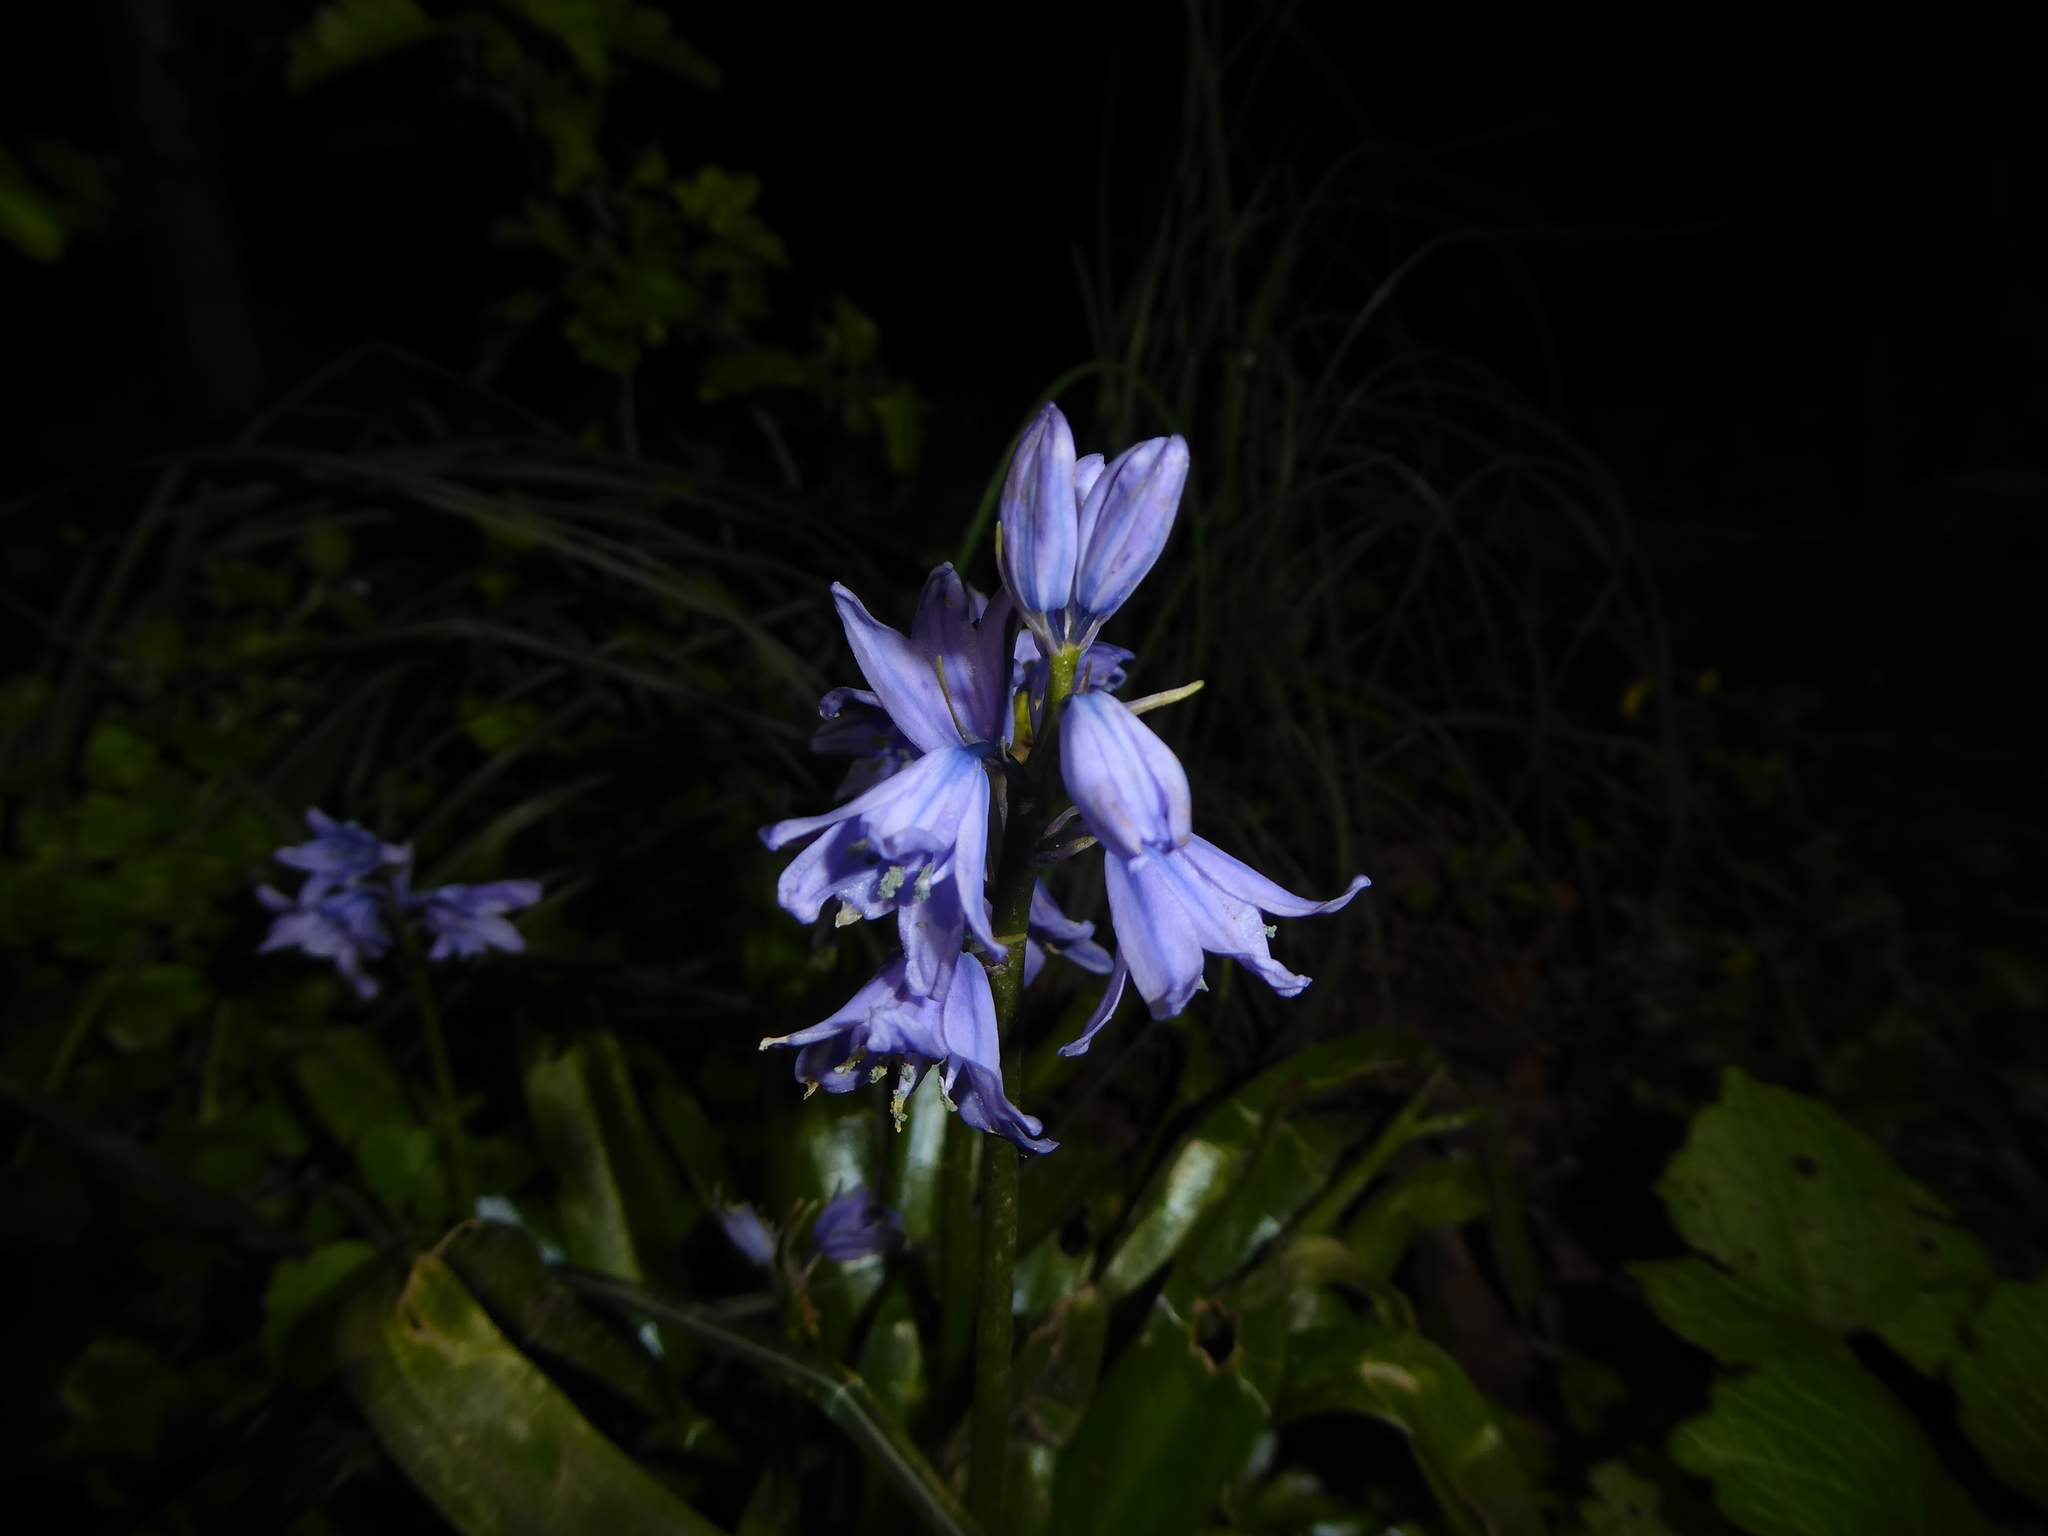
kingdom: Plantae
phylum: Tracheophyta
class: Liliopsida
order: Asparagales
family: Asparagaceae
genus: Hyacinthoides
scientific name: Hyacinthoides massartiana
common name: Hyacinthoides
